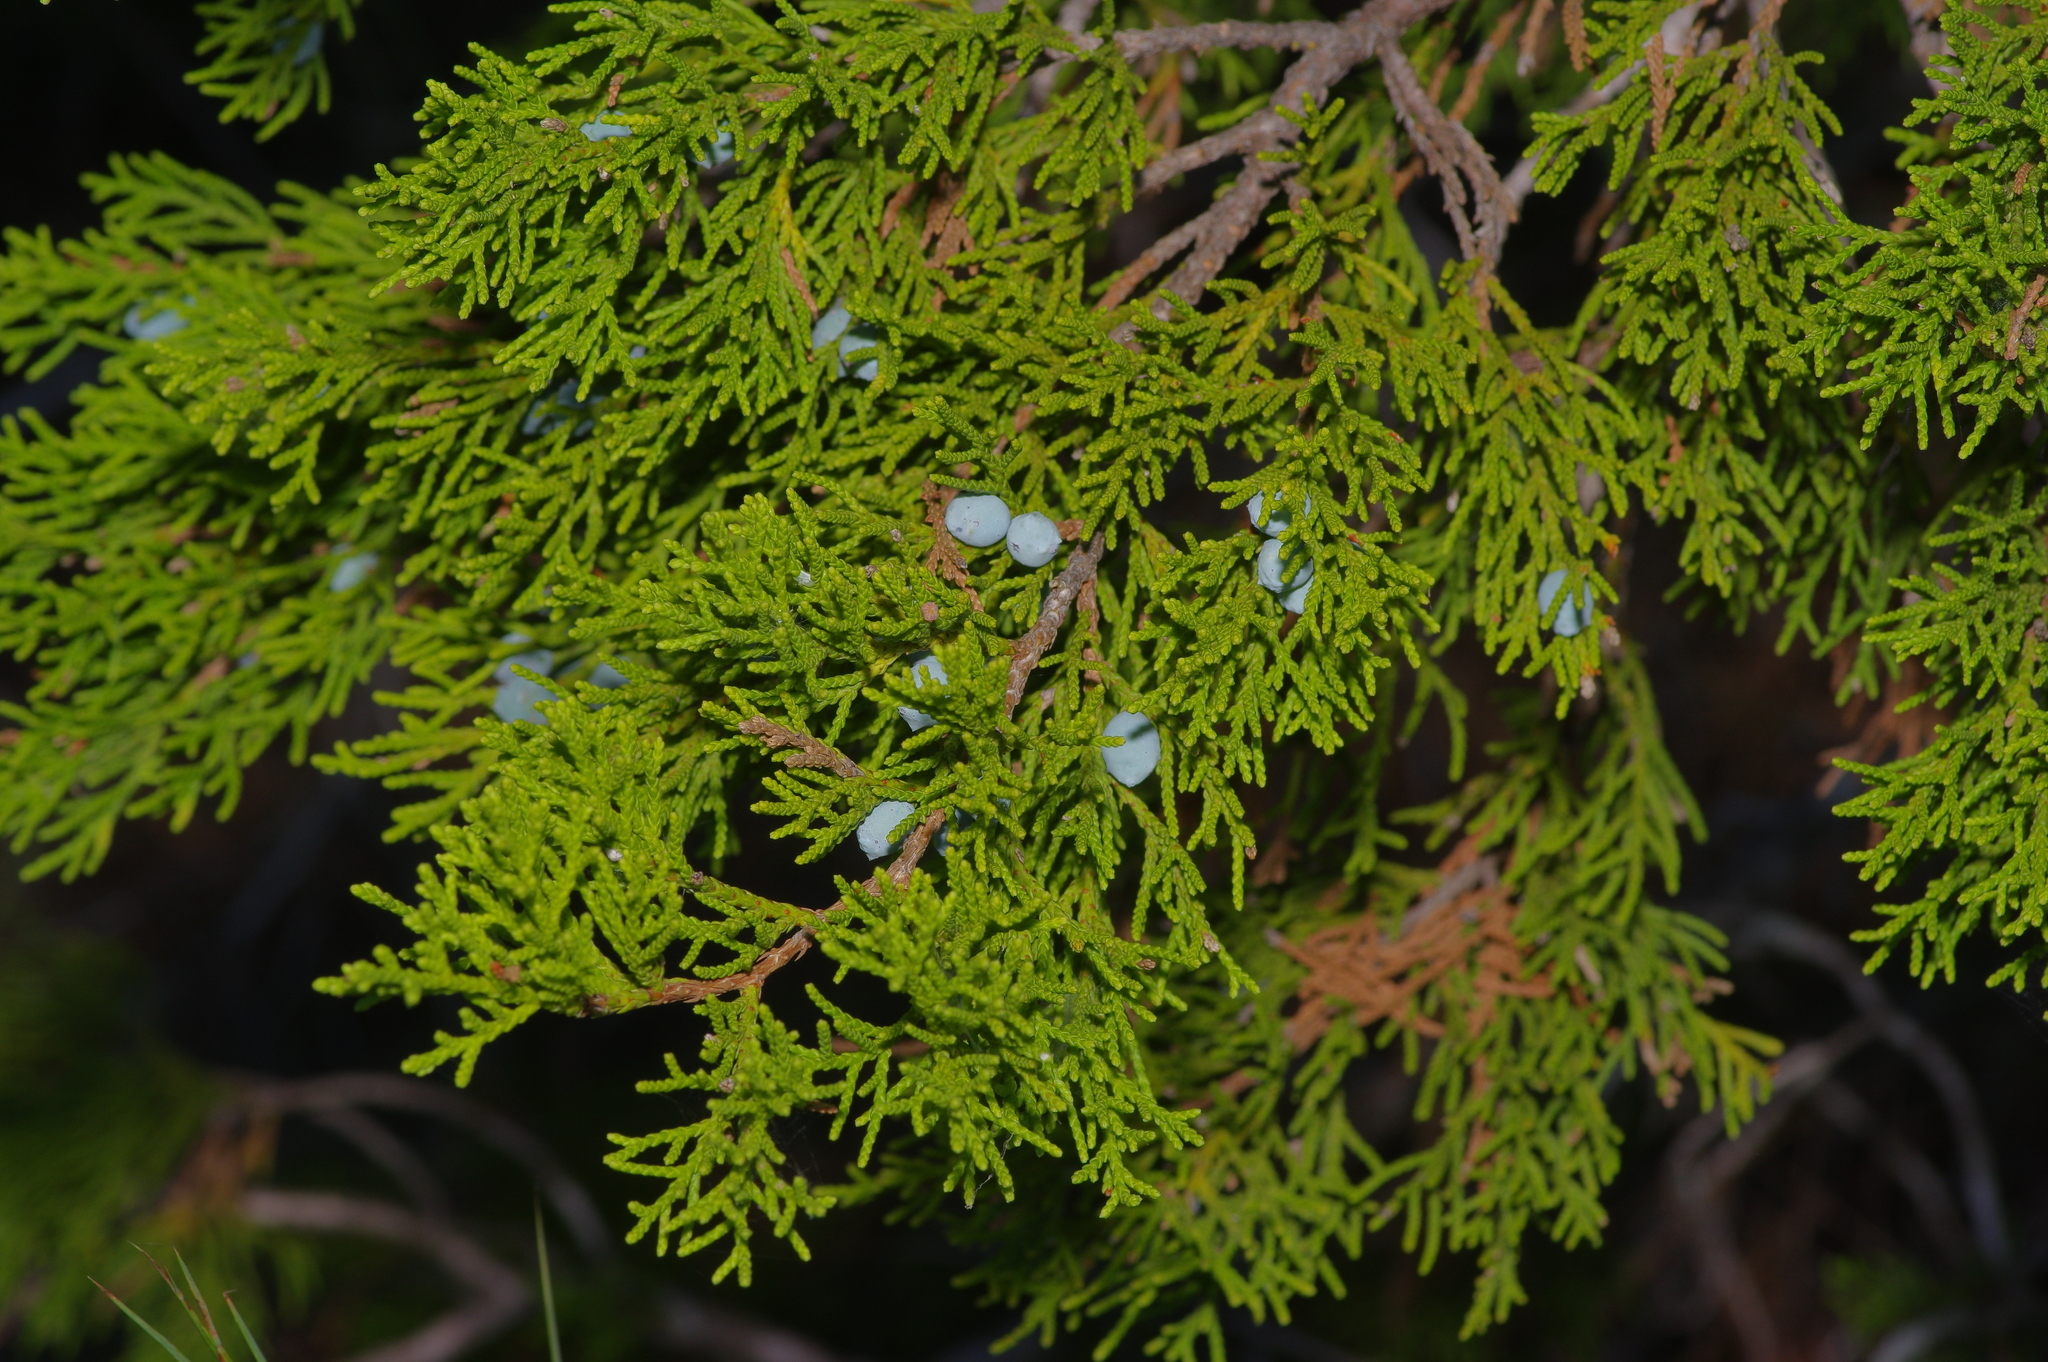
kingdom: Plantae
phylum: Tracheophyta
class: Pinopsida
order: Pinales
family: Cupressaceae
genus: Juniperus
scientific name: Juniperus ashei
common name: Mexican juniper
